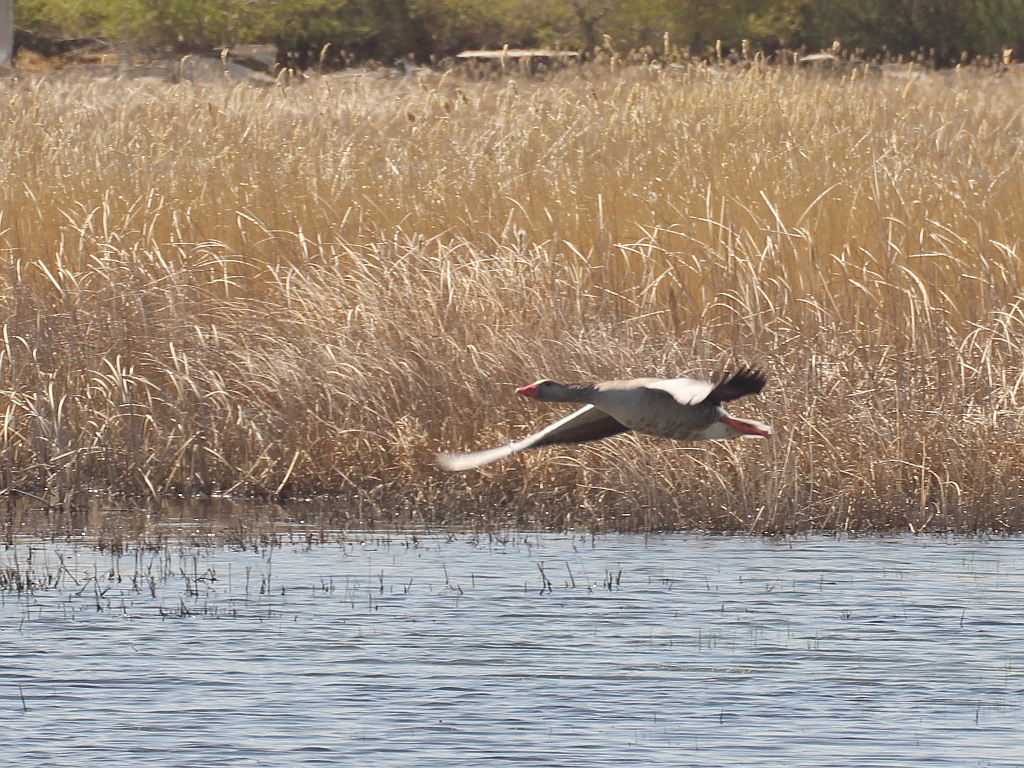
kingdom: Animalia
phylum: Chordata
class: Aves
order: Anseriformes
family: Anatidae
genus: Anser
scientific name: Anser anser
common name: Greylag goose
